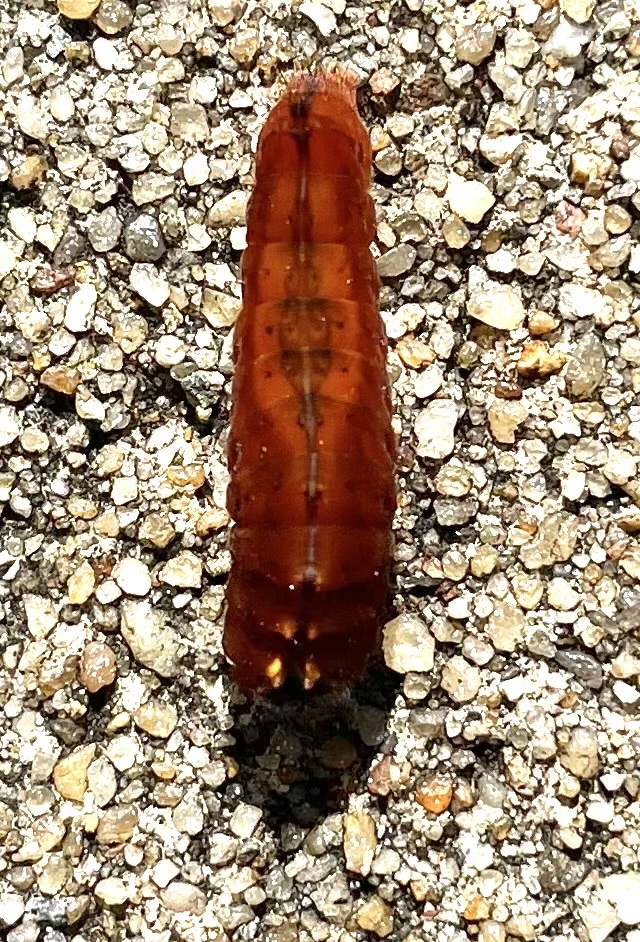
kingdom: Animalia
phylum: Arthropoda
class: Insecta
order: Lepidoptera
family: Noctuidae
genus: Acronicta
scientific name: Acronicta clarescens
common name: Clear dagger
